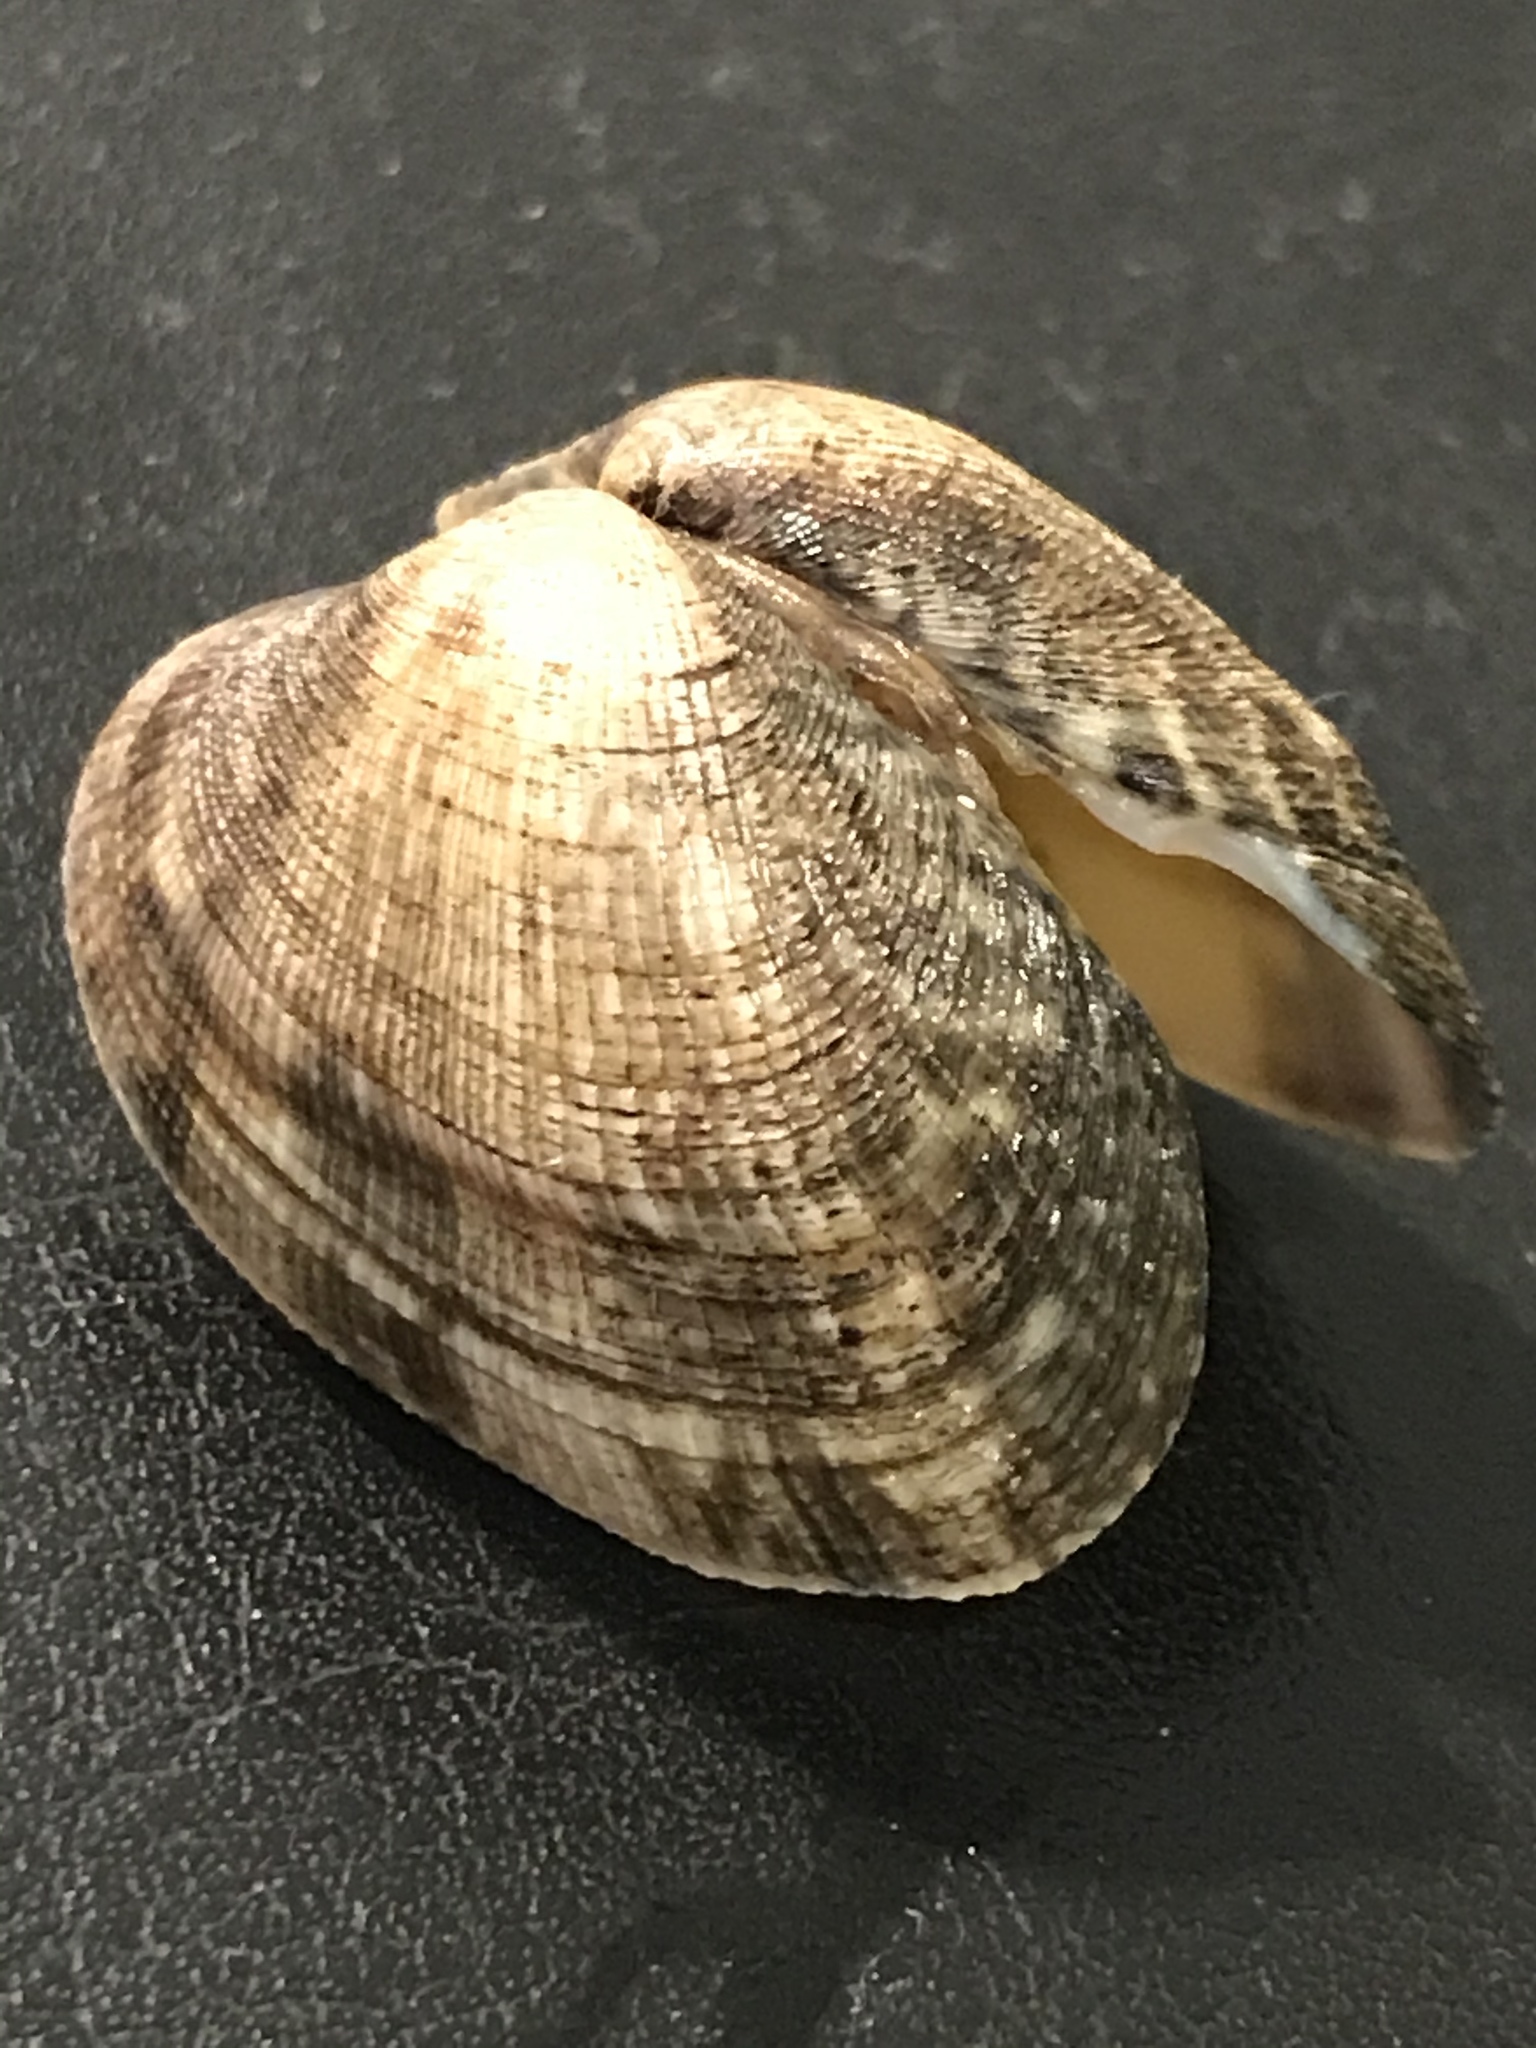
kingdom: Animalia
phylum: Mollusca
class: Bivalvia
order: Venerida
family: Veneridae
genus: Ruditapes
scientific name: Ruditapes philippinarum
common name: Manila clam
